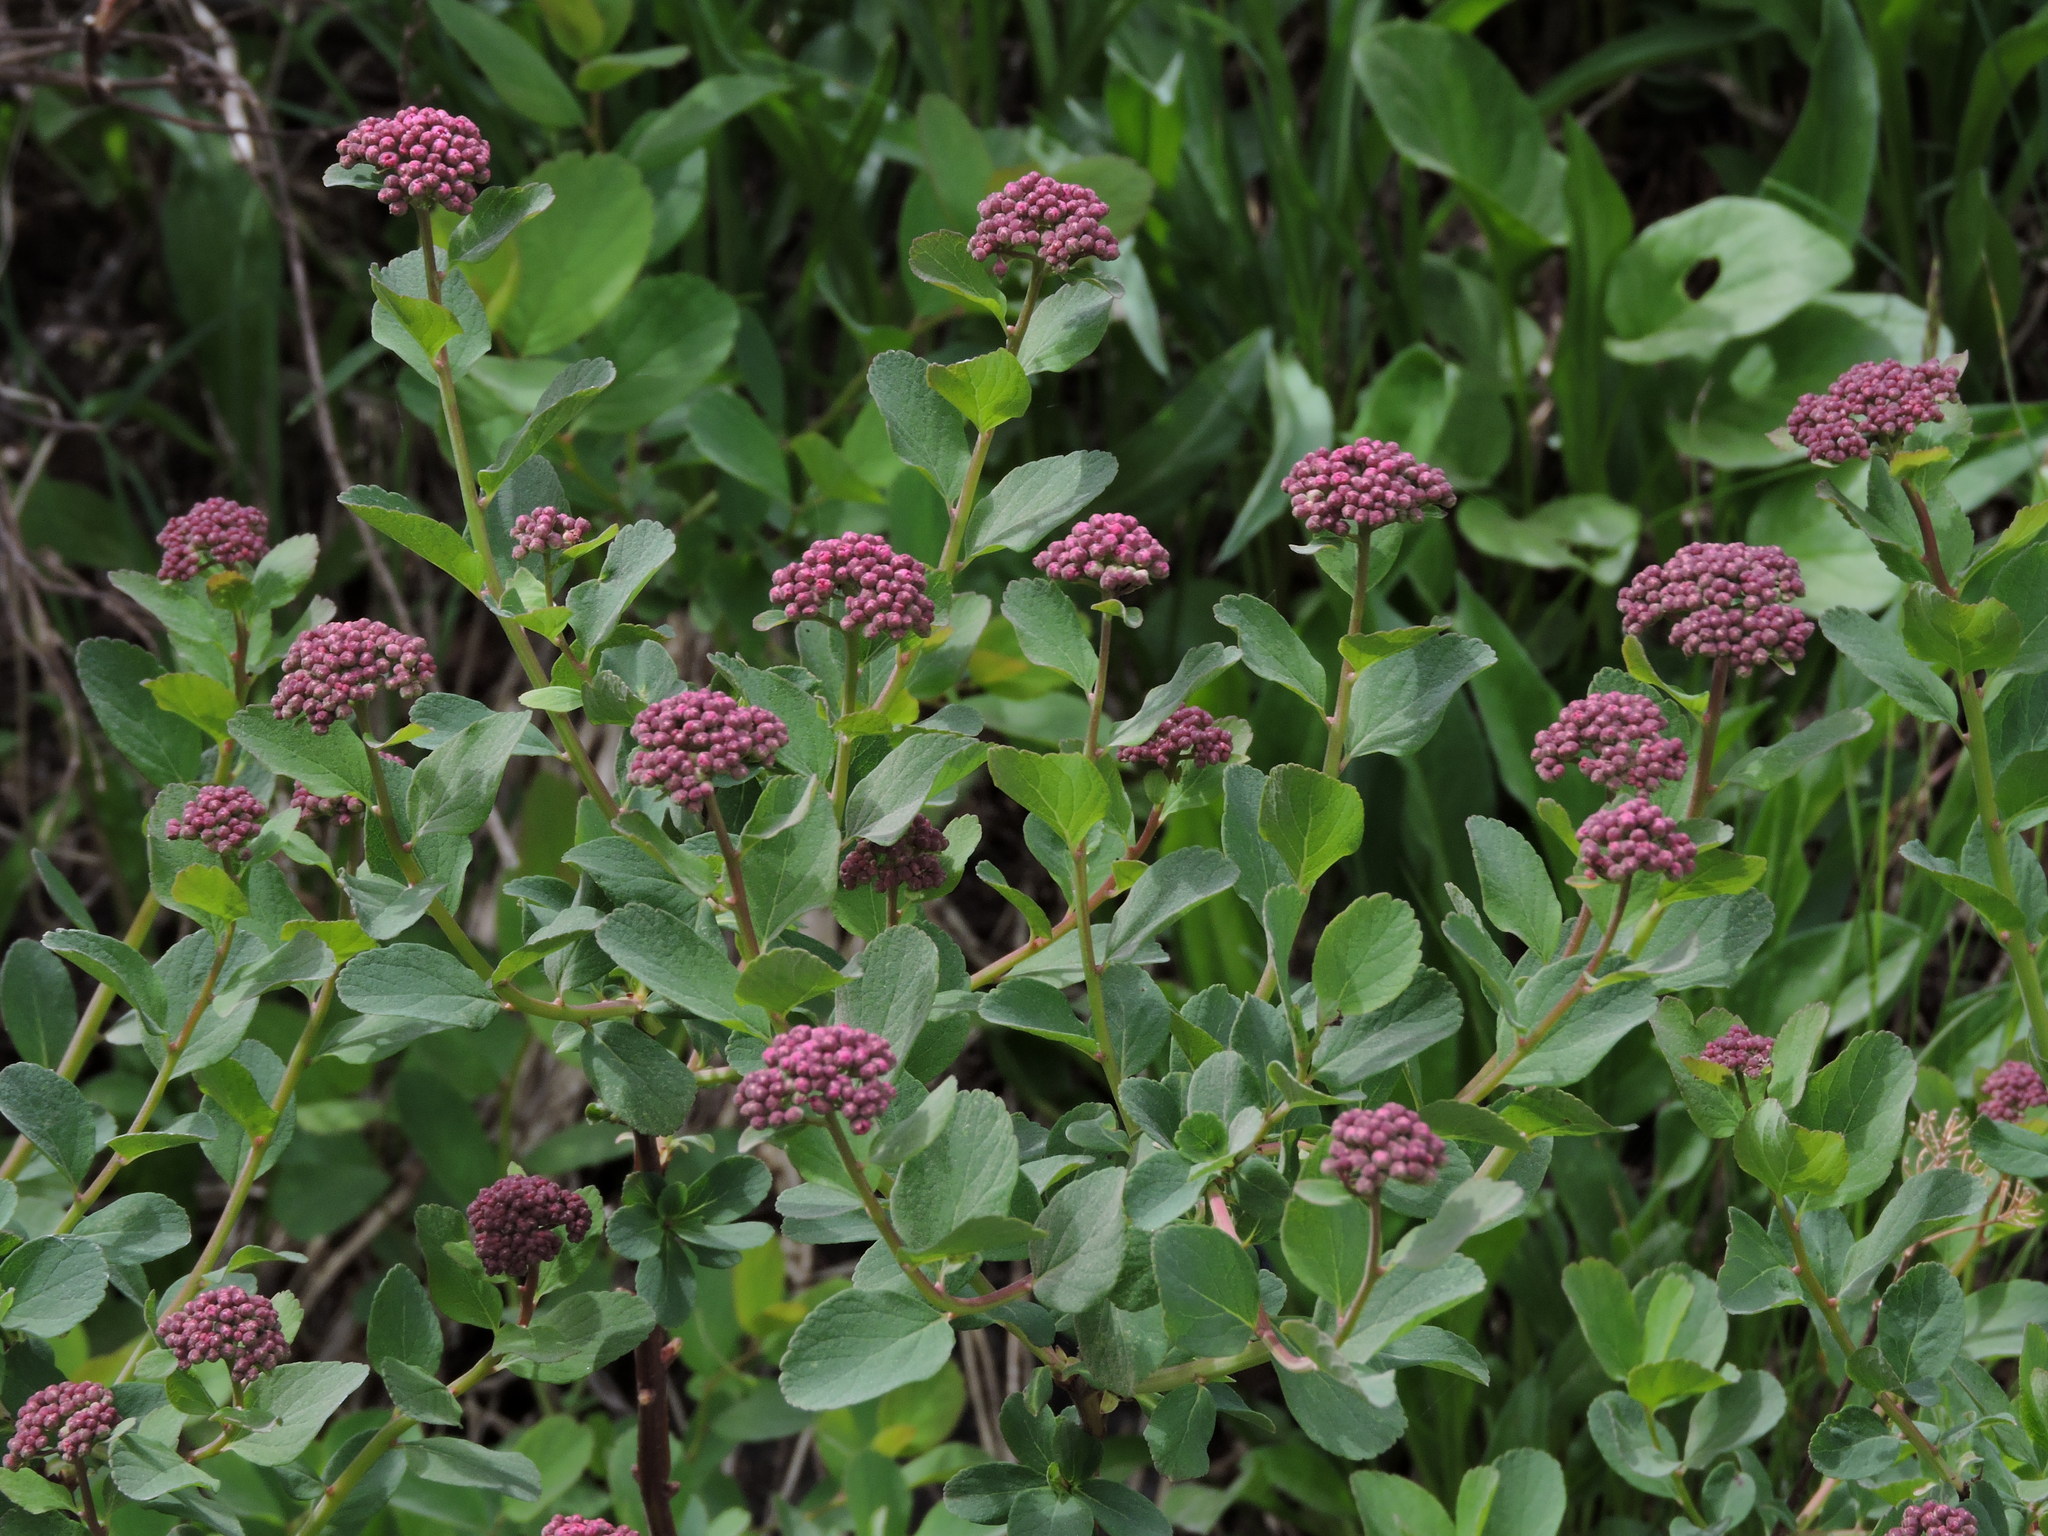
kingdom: Plantae
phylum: Tracheophyta
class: Magnoliopsida
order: Rosales
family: Rosaceae
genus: Spiraea
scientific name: Spiraea splendens
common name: Subalpine meadowsweet
